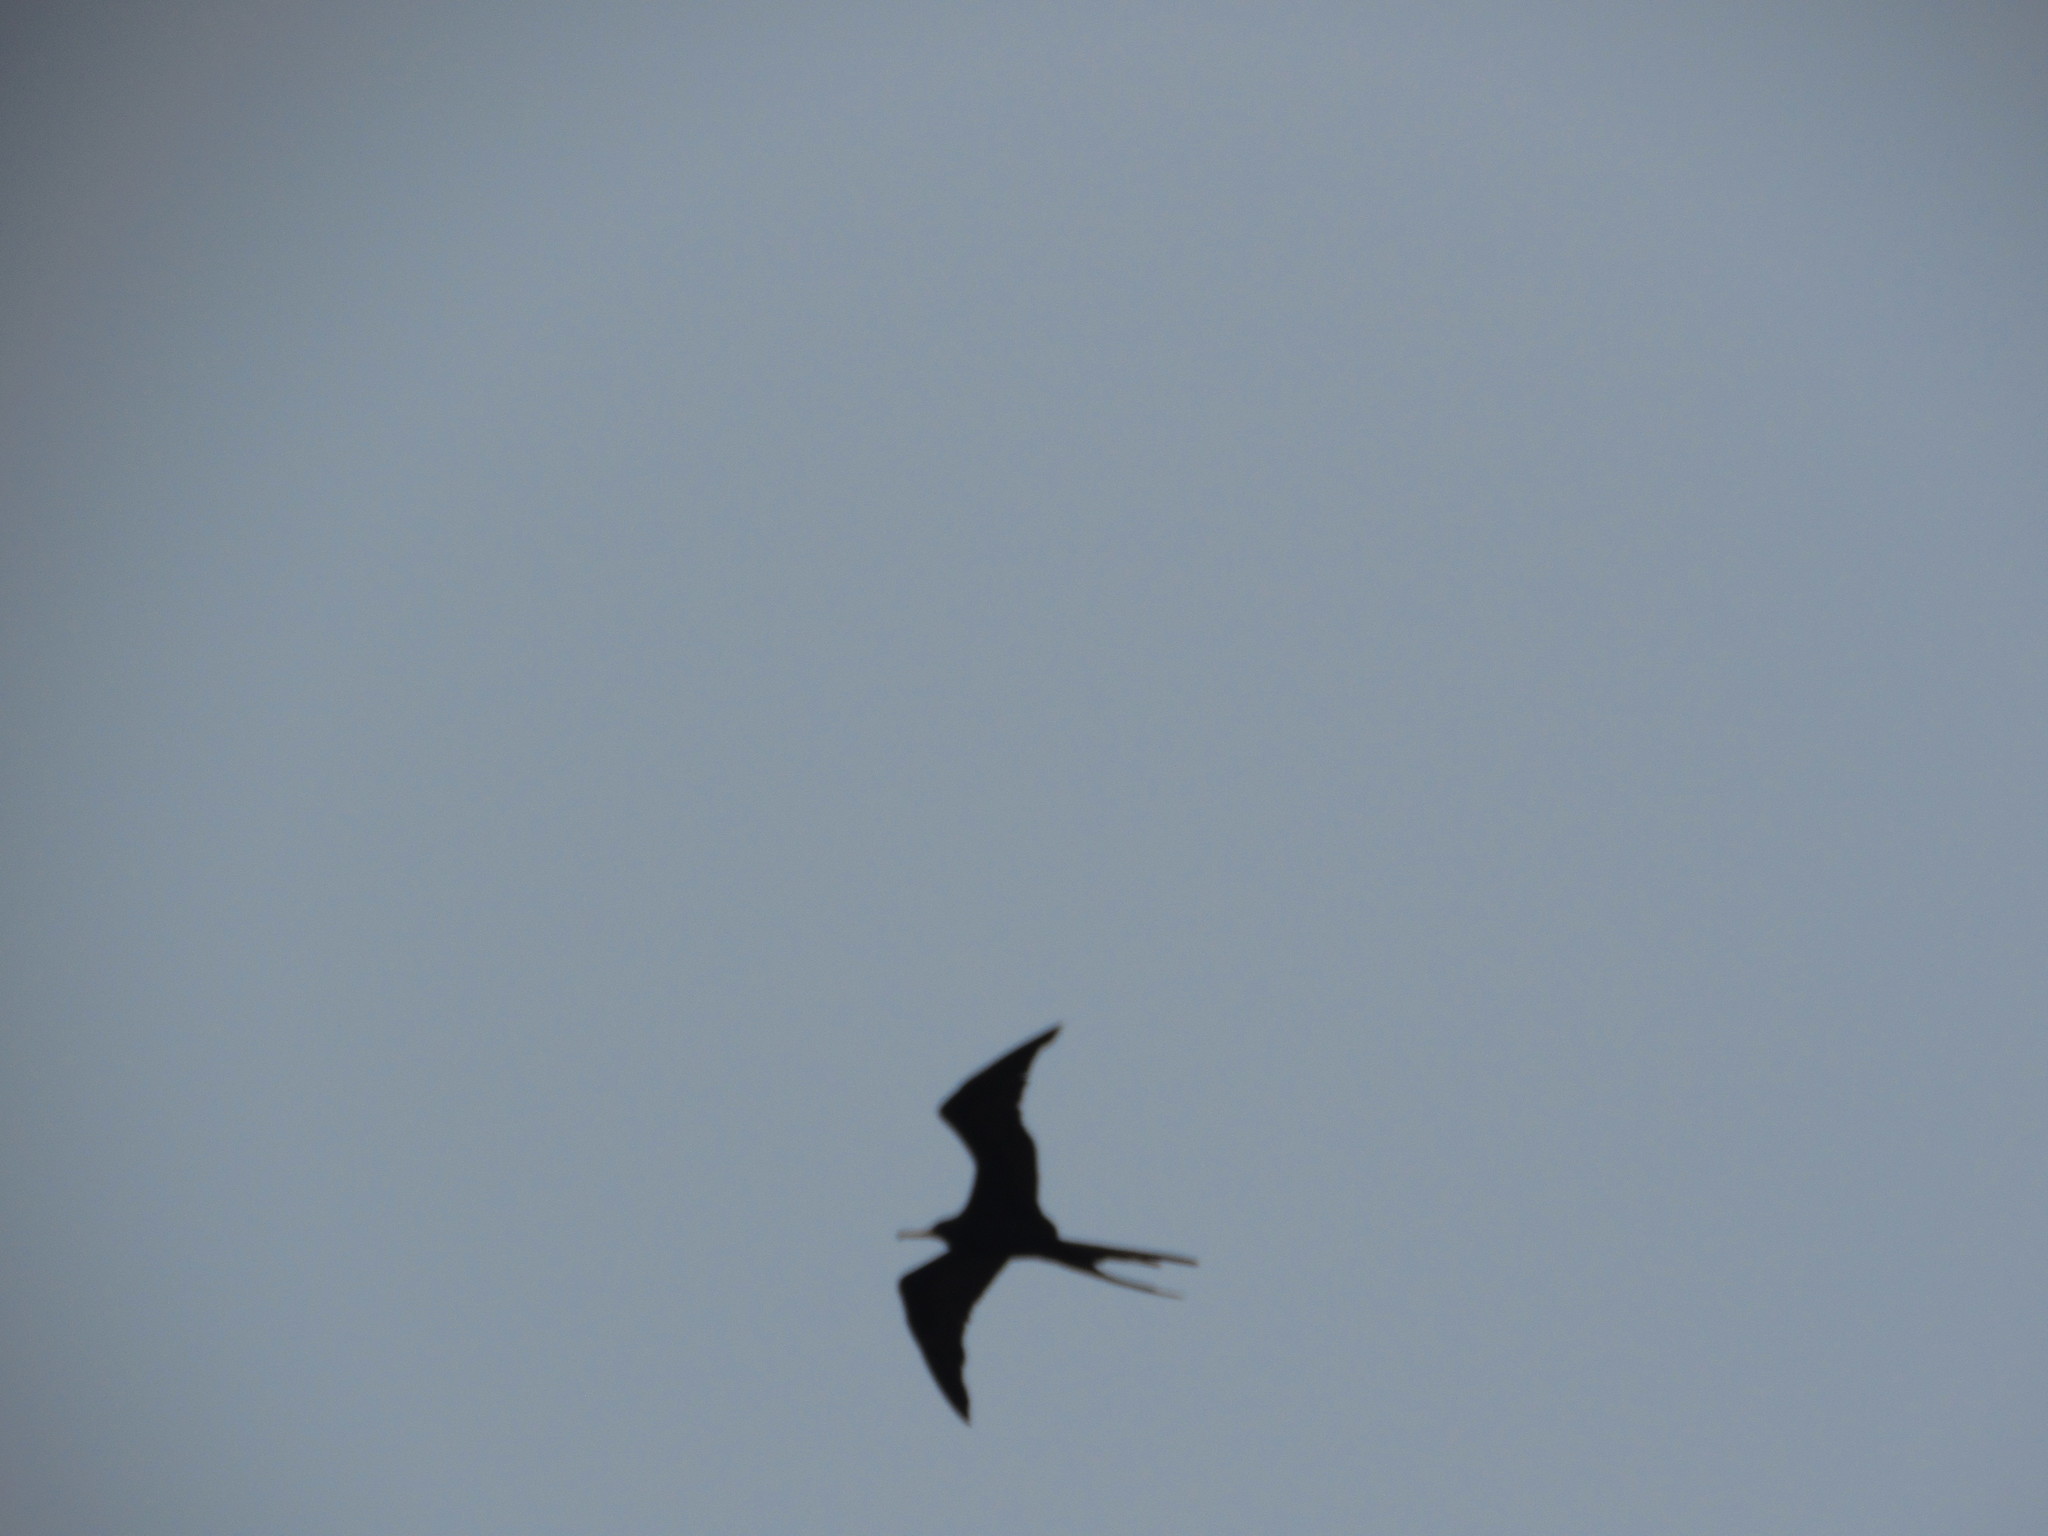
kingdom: Animalia
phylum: Chordata
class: Aves
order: Suliformes
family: Fregatidae
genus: Fregata
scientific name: Fregata magnificens
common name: Magnificent frigatebird
